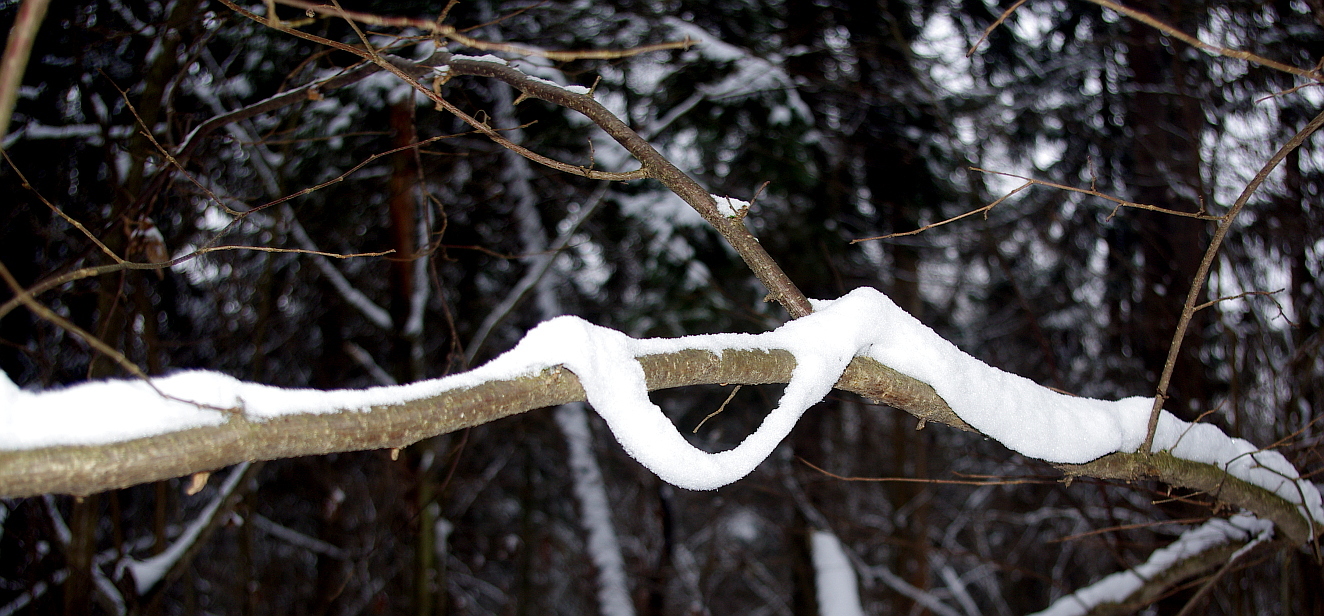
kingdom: Plantae
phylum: Tracheophyta
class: Magnoliopsida
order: Fagales
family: Betulaceae
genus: Corylus
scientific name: Corylus avellana
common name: European hazel
